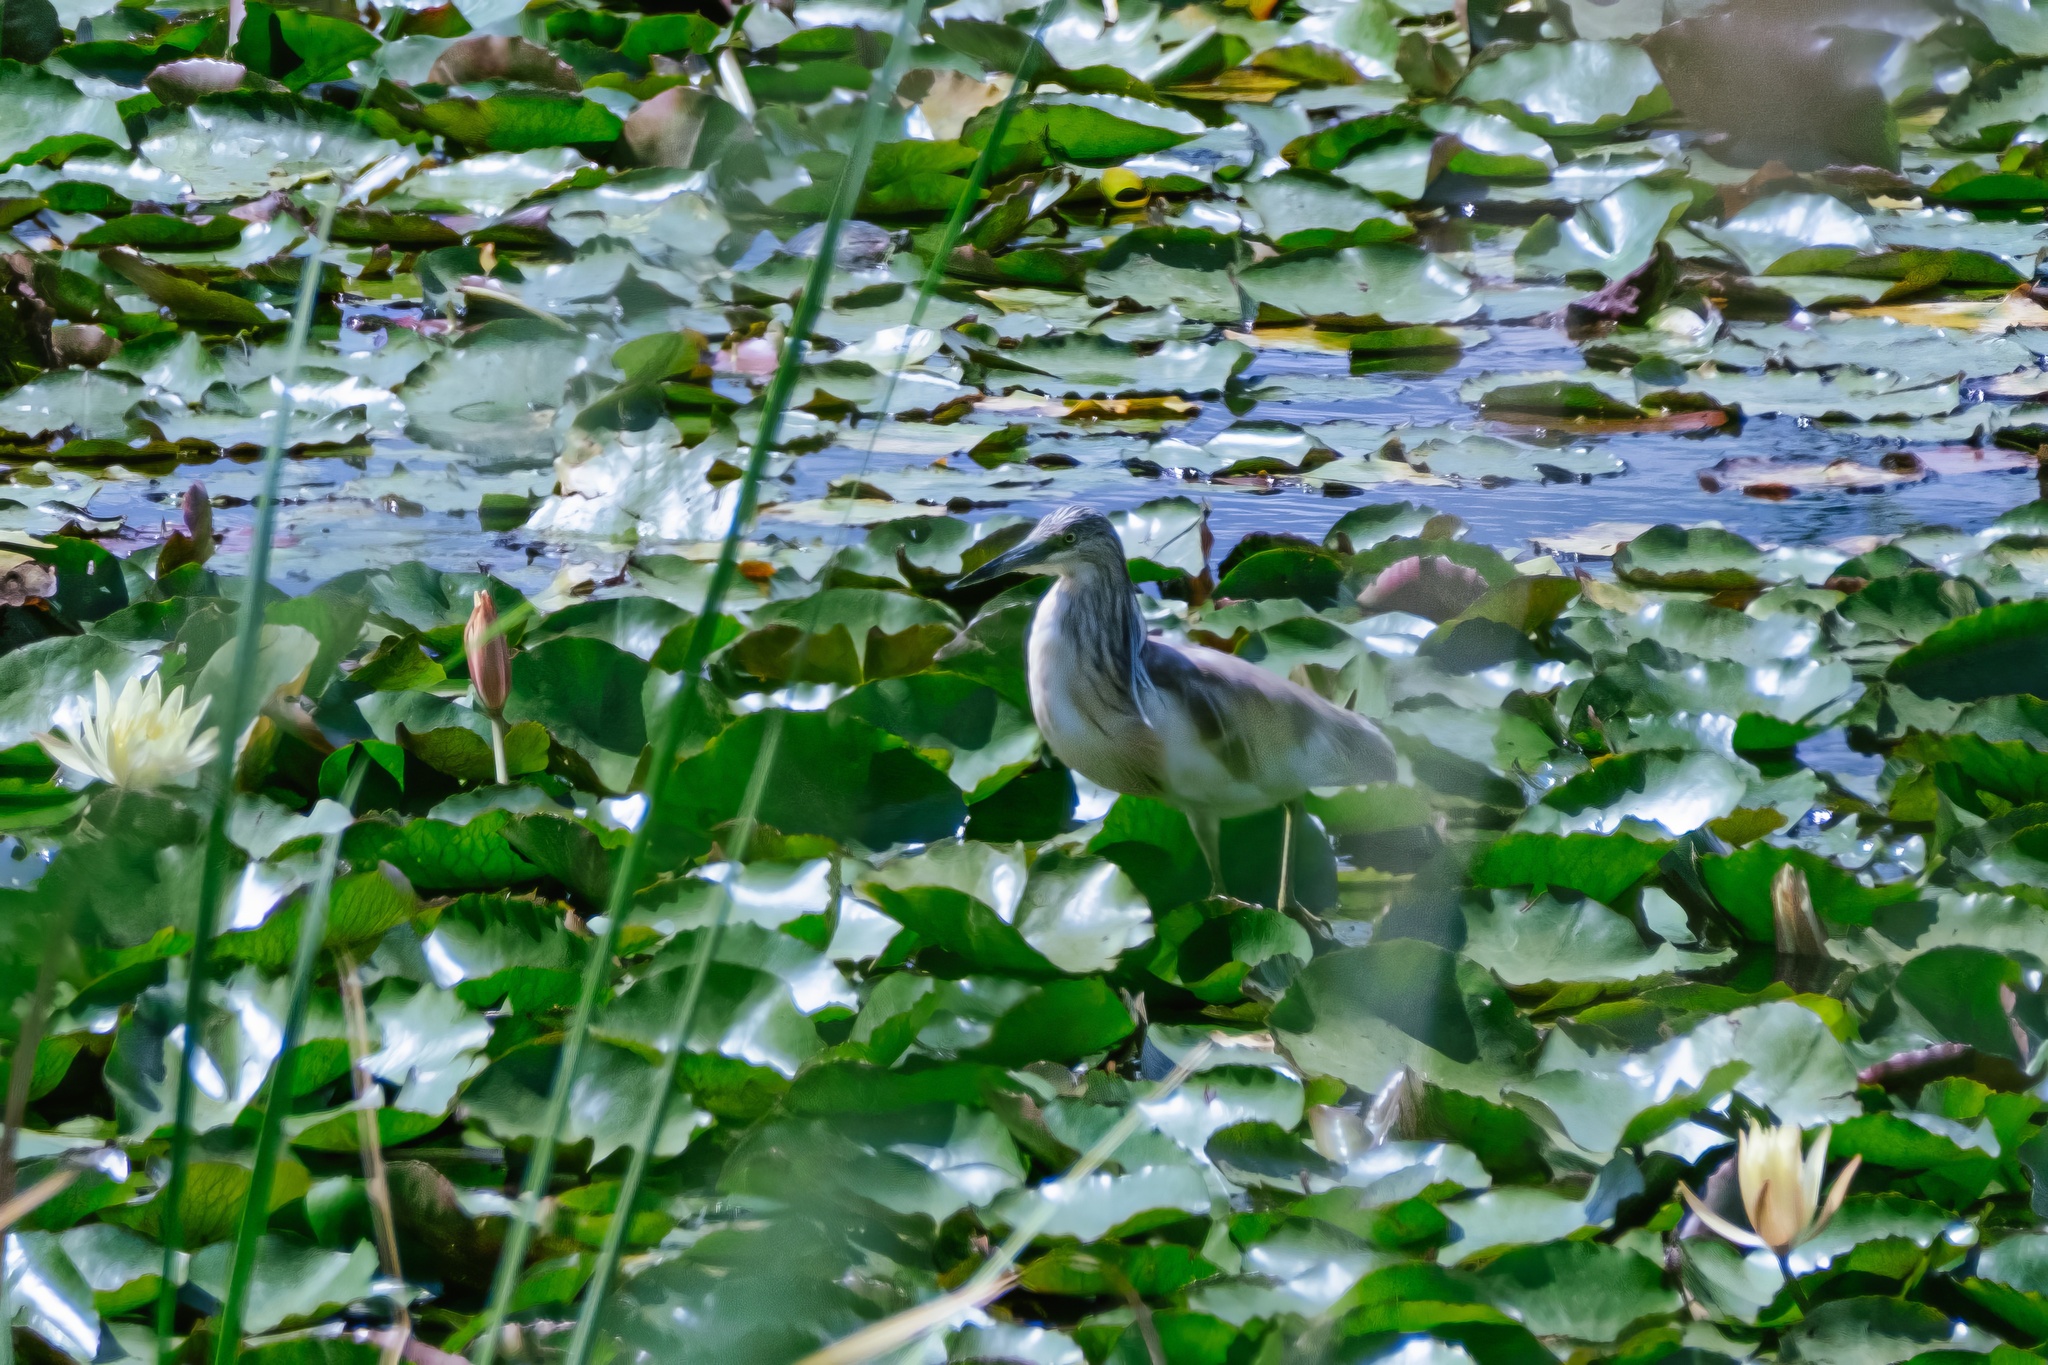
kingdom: Animalia
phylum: Chordata
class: Aves
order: Pelecaniformes
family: Ardeidae
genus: Ardeola
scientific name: Ardeola ralloides
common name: Squacco heron
